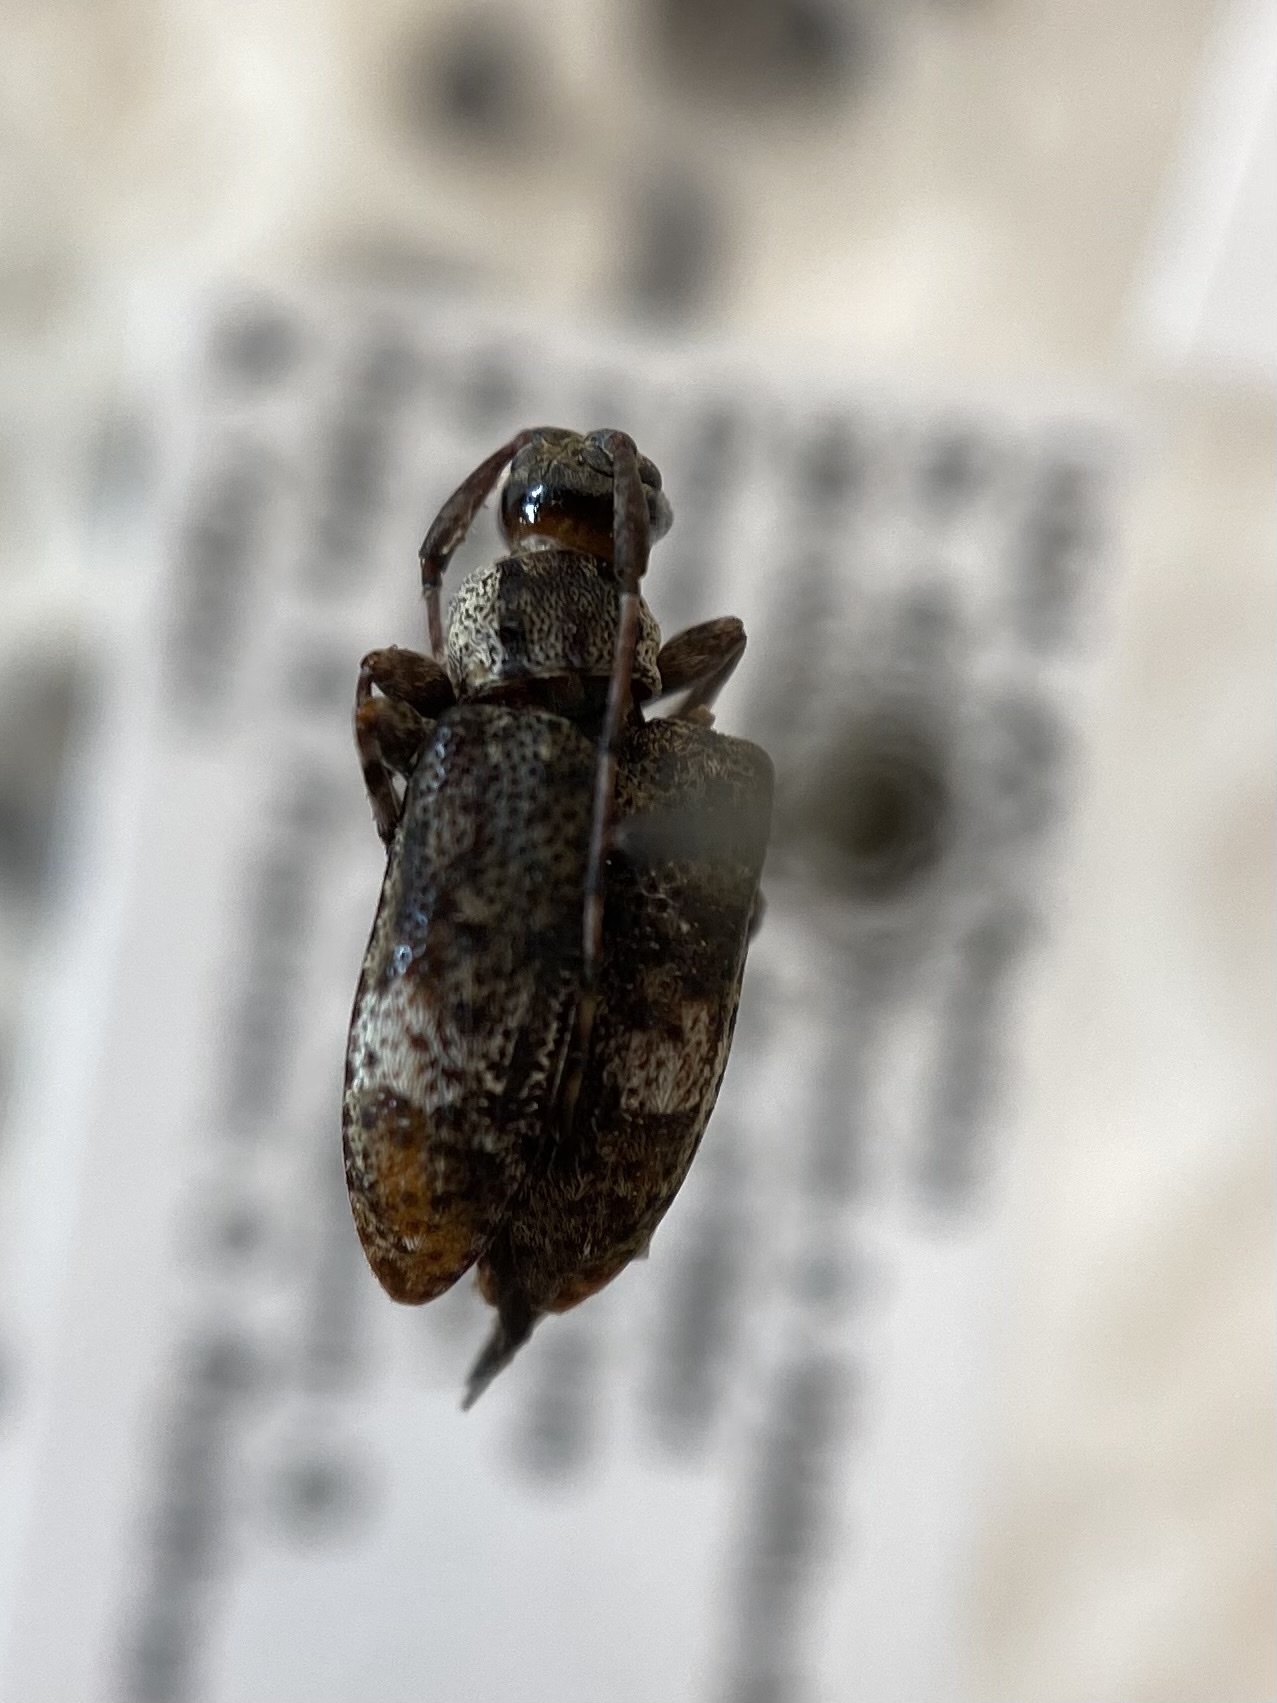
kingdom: Animalia
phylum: Arthropoda
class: Insecta
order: Coleoptera
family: Cerambycidae
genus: Astylopsis
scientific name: Astylopsis macula
